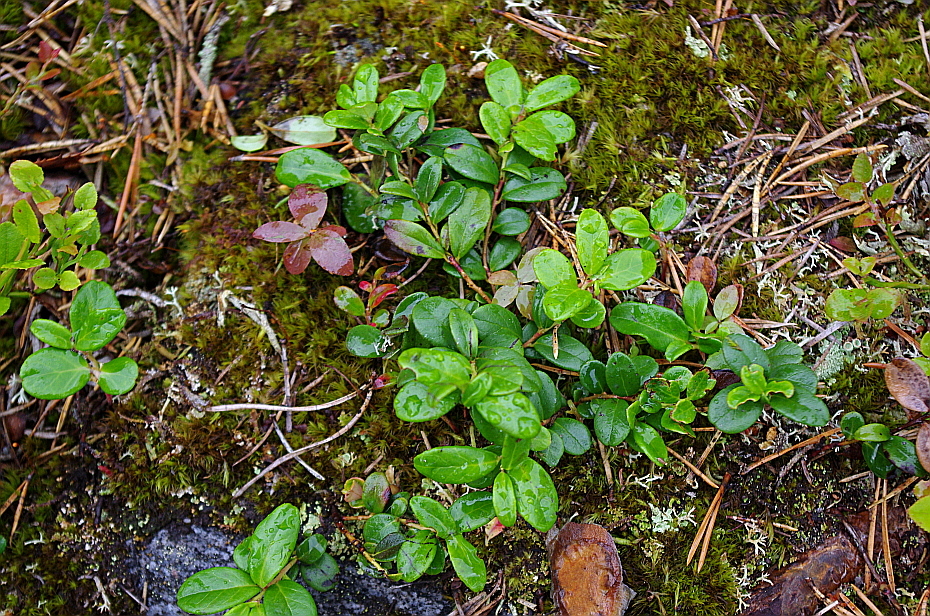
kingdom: Plantae
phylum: Tracheophyta
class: Magnoliopsida
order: Ericales
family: Ericaceae
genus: Vaccinium
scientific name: Vaccinium vitis-idaea
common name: Cowberry
